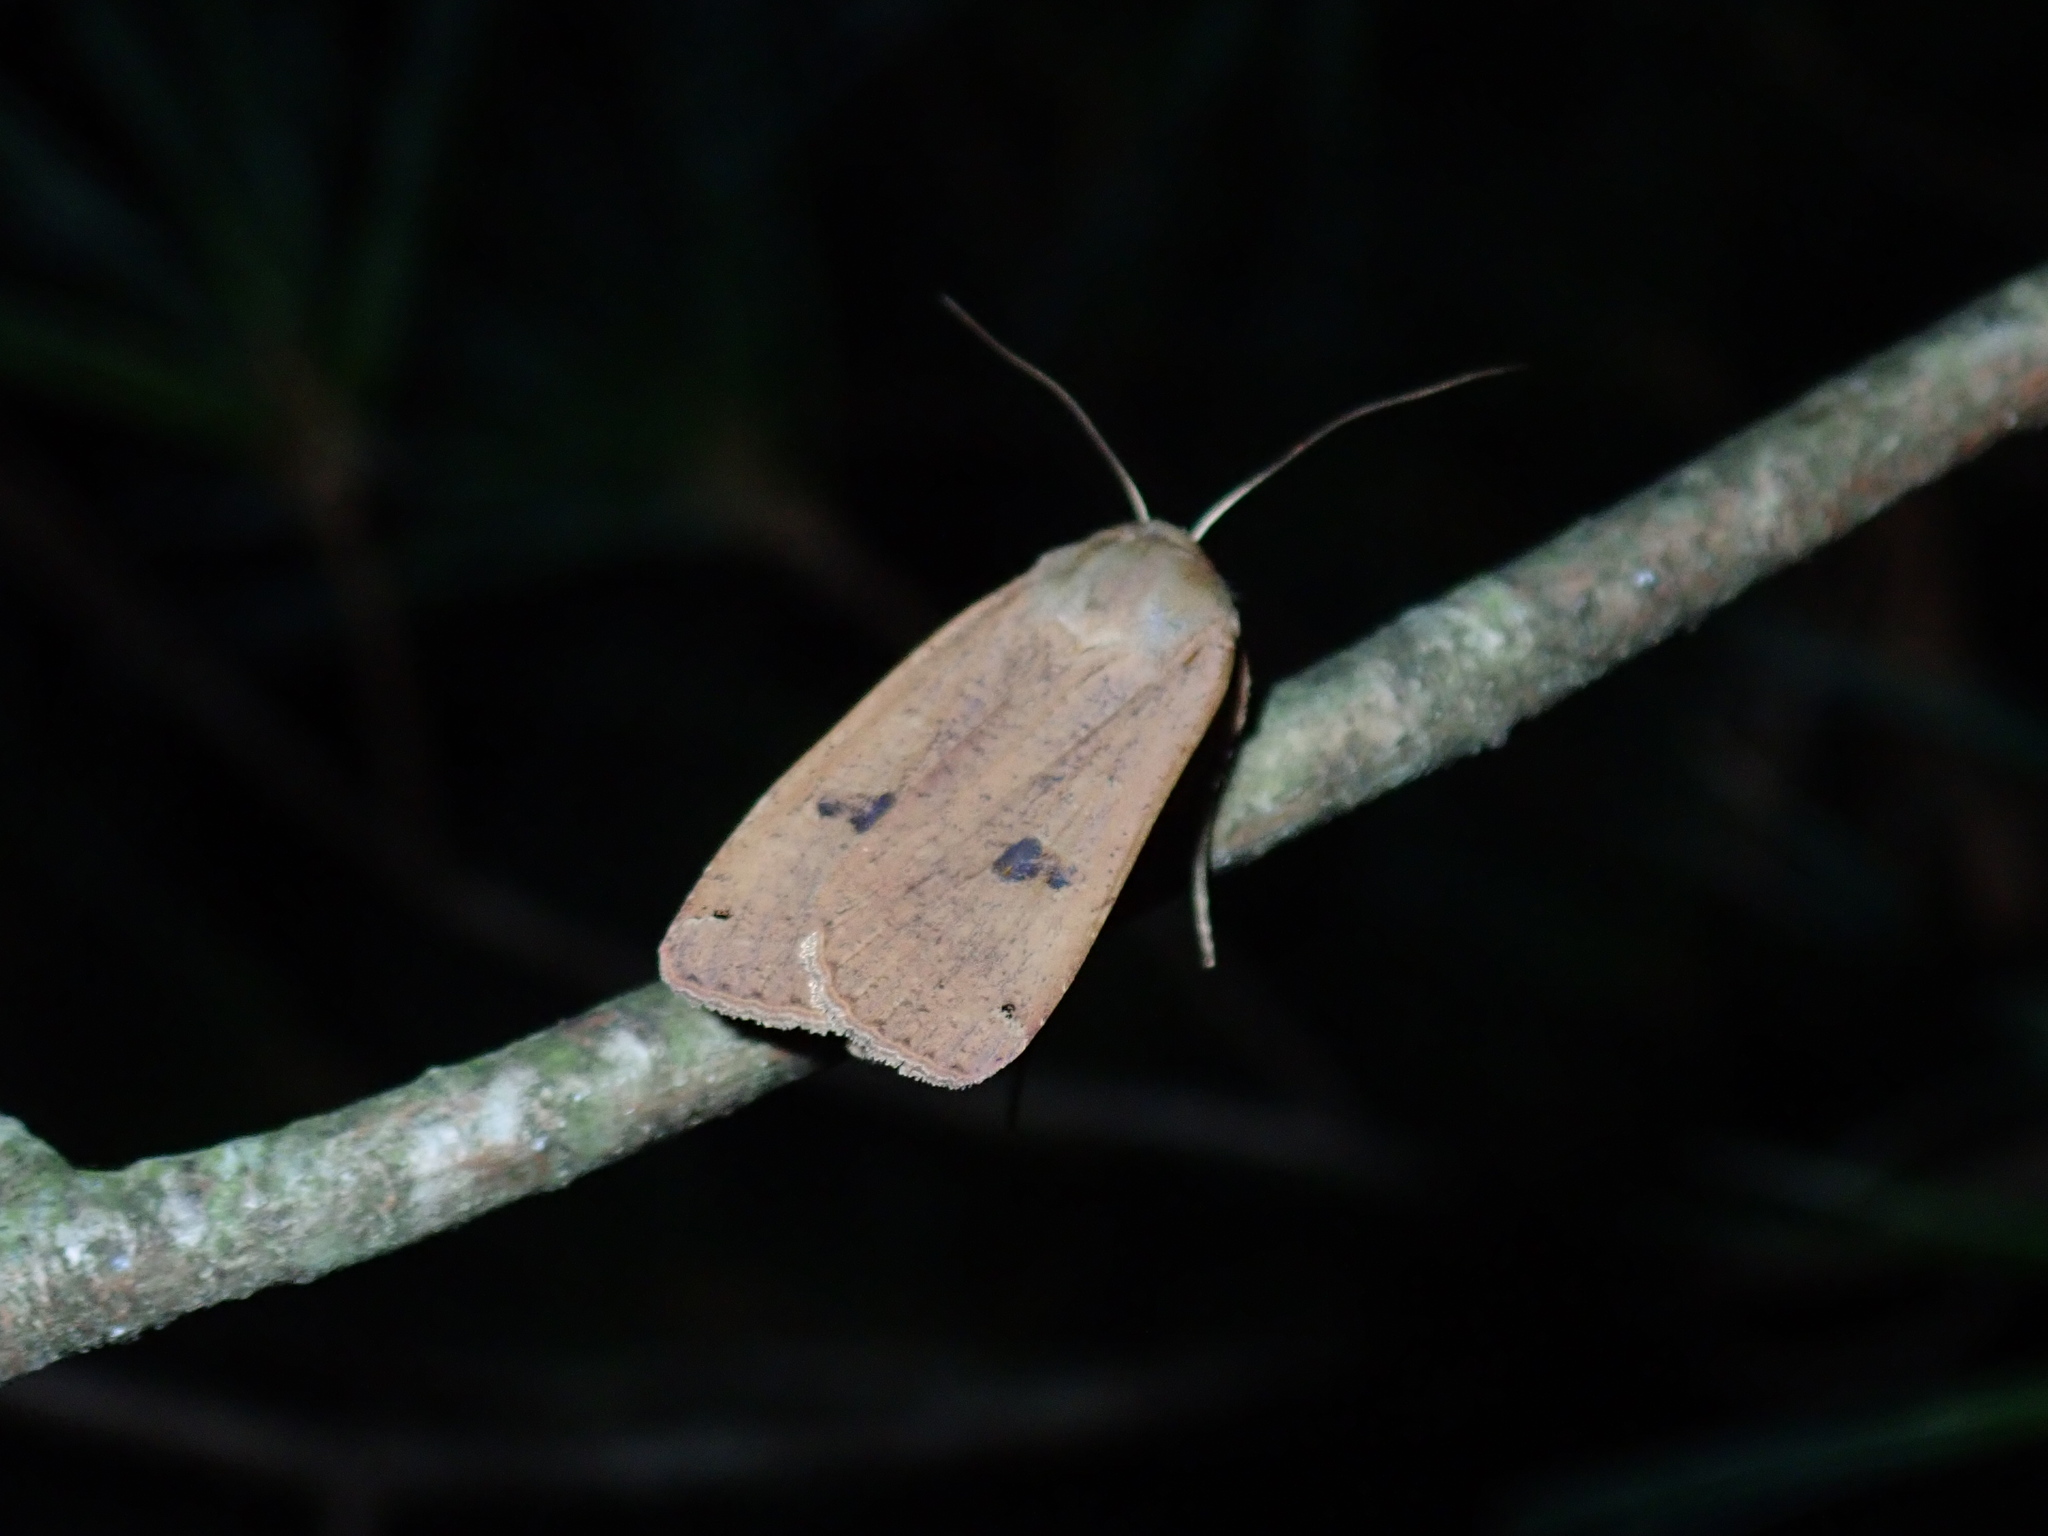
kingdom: Animalia
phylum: Arthropoda
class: Insecta
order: Lepidoptera
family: Noctuidae
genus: Noctua
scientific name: Noctua pronuba
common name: Large yellow underwing
